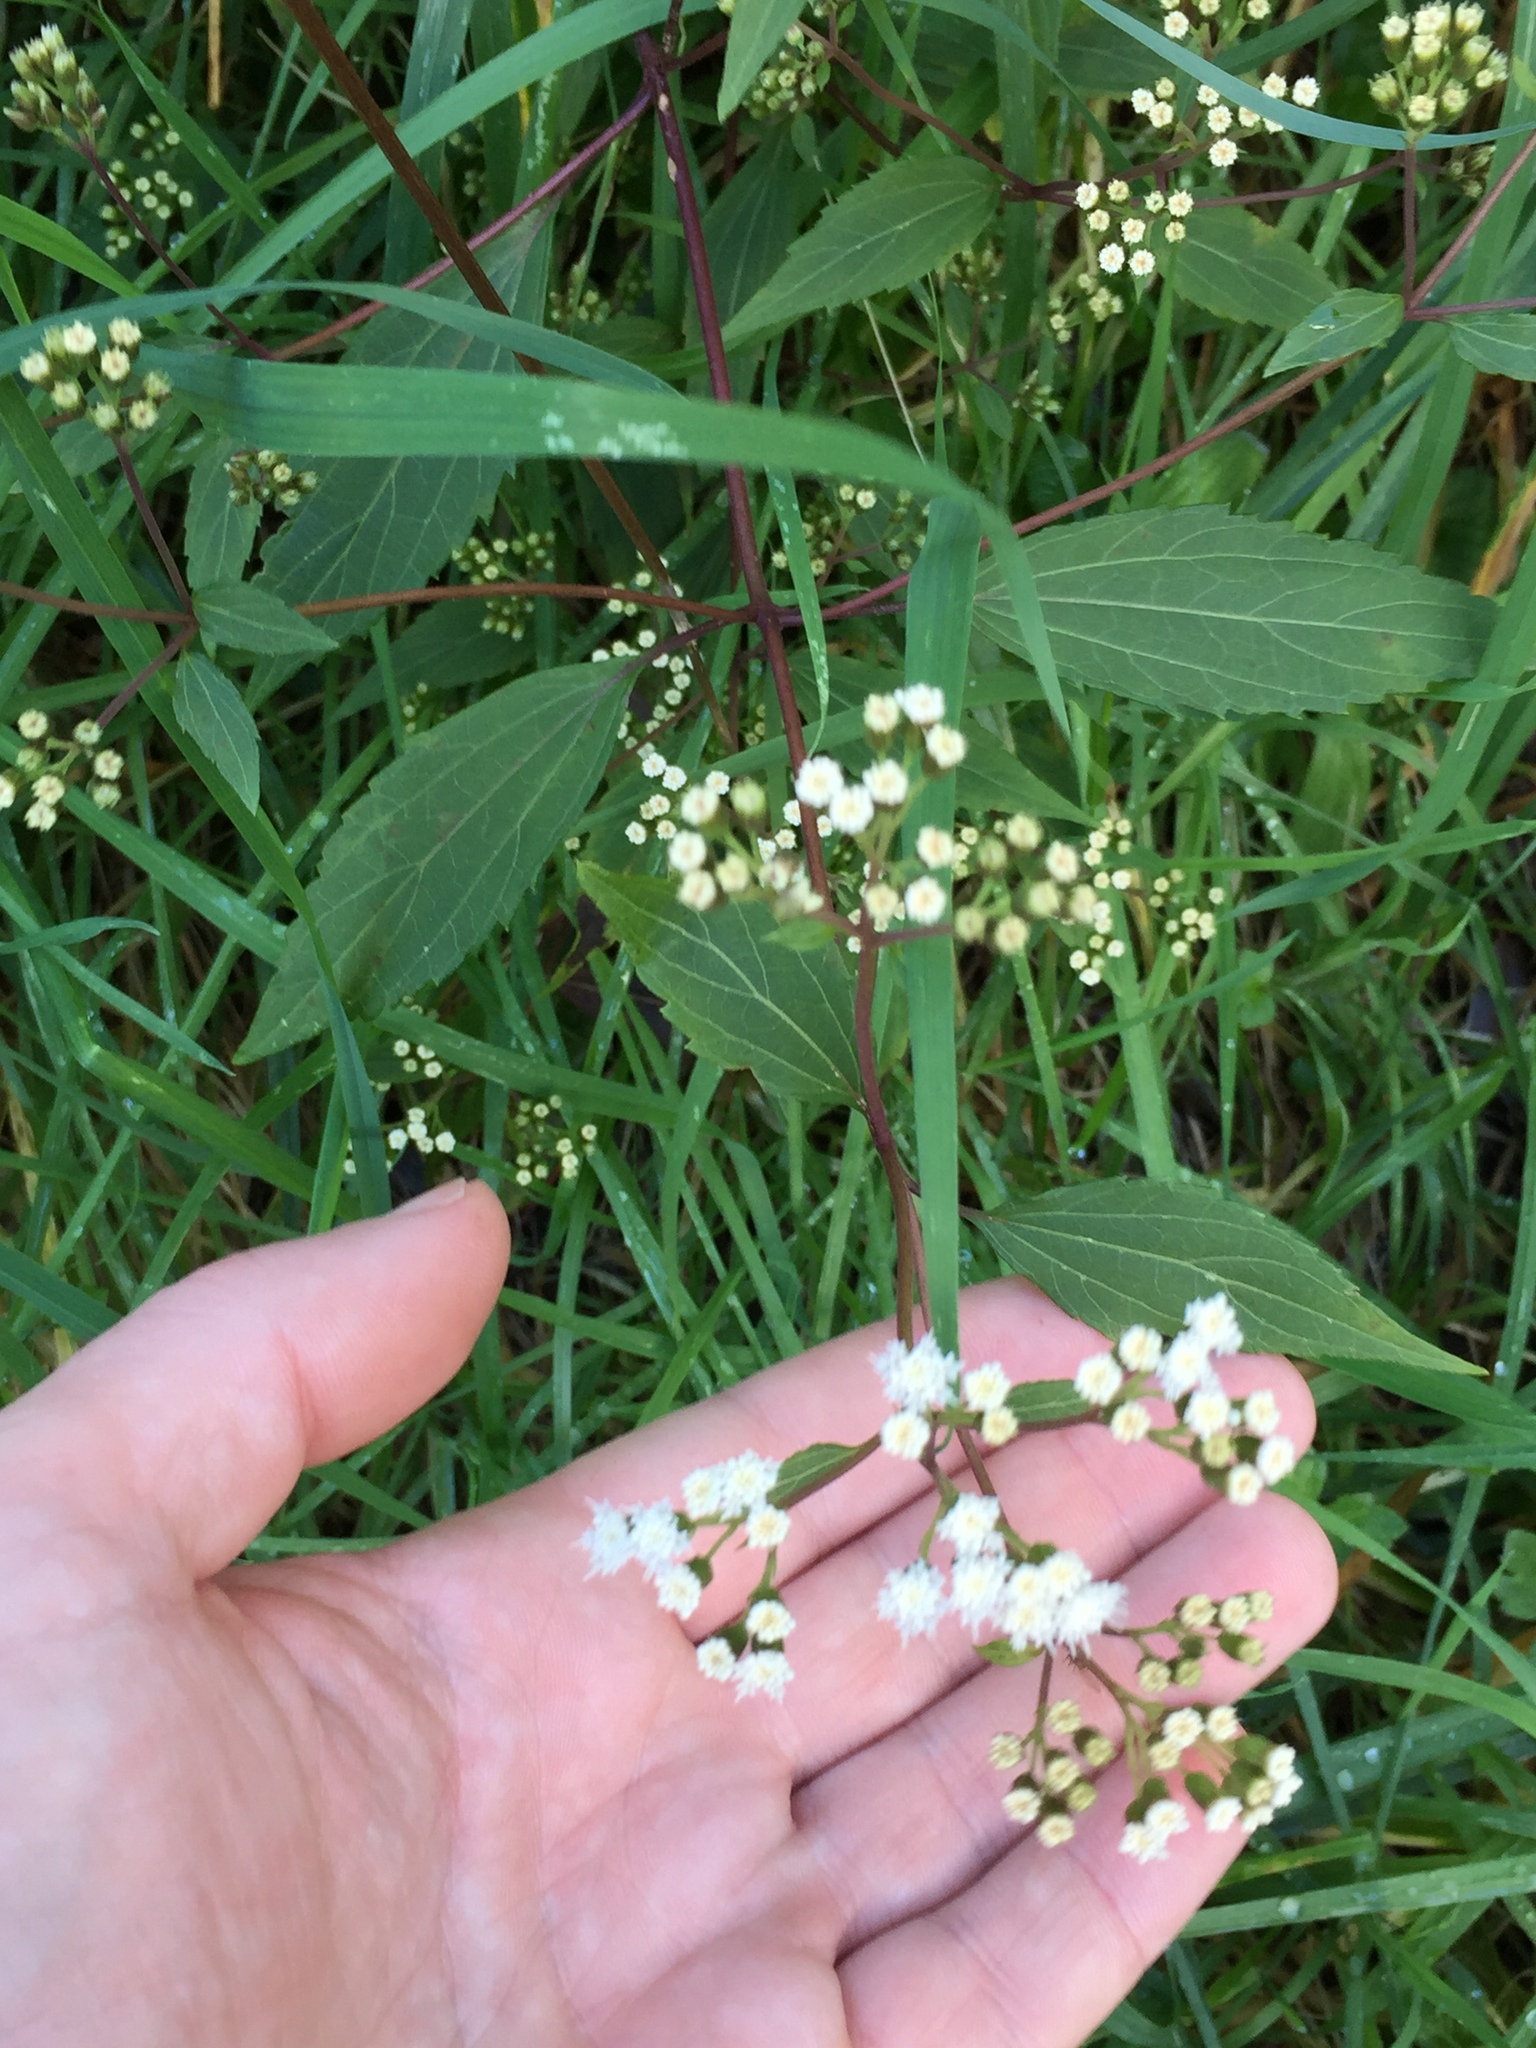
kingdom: Plantae
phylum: Tracheophyta
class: Magnoliopsida
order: Asterales
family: Asteraceae
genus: Ageratina
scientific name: Ageratina riparia
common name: Creeping croftonweed
